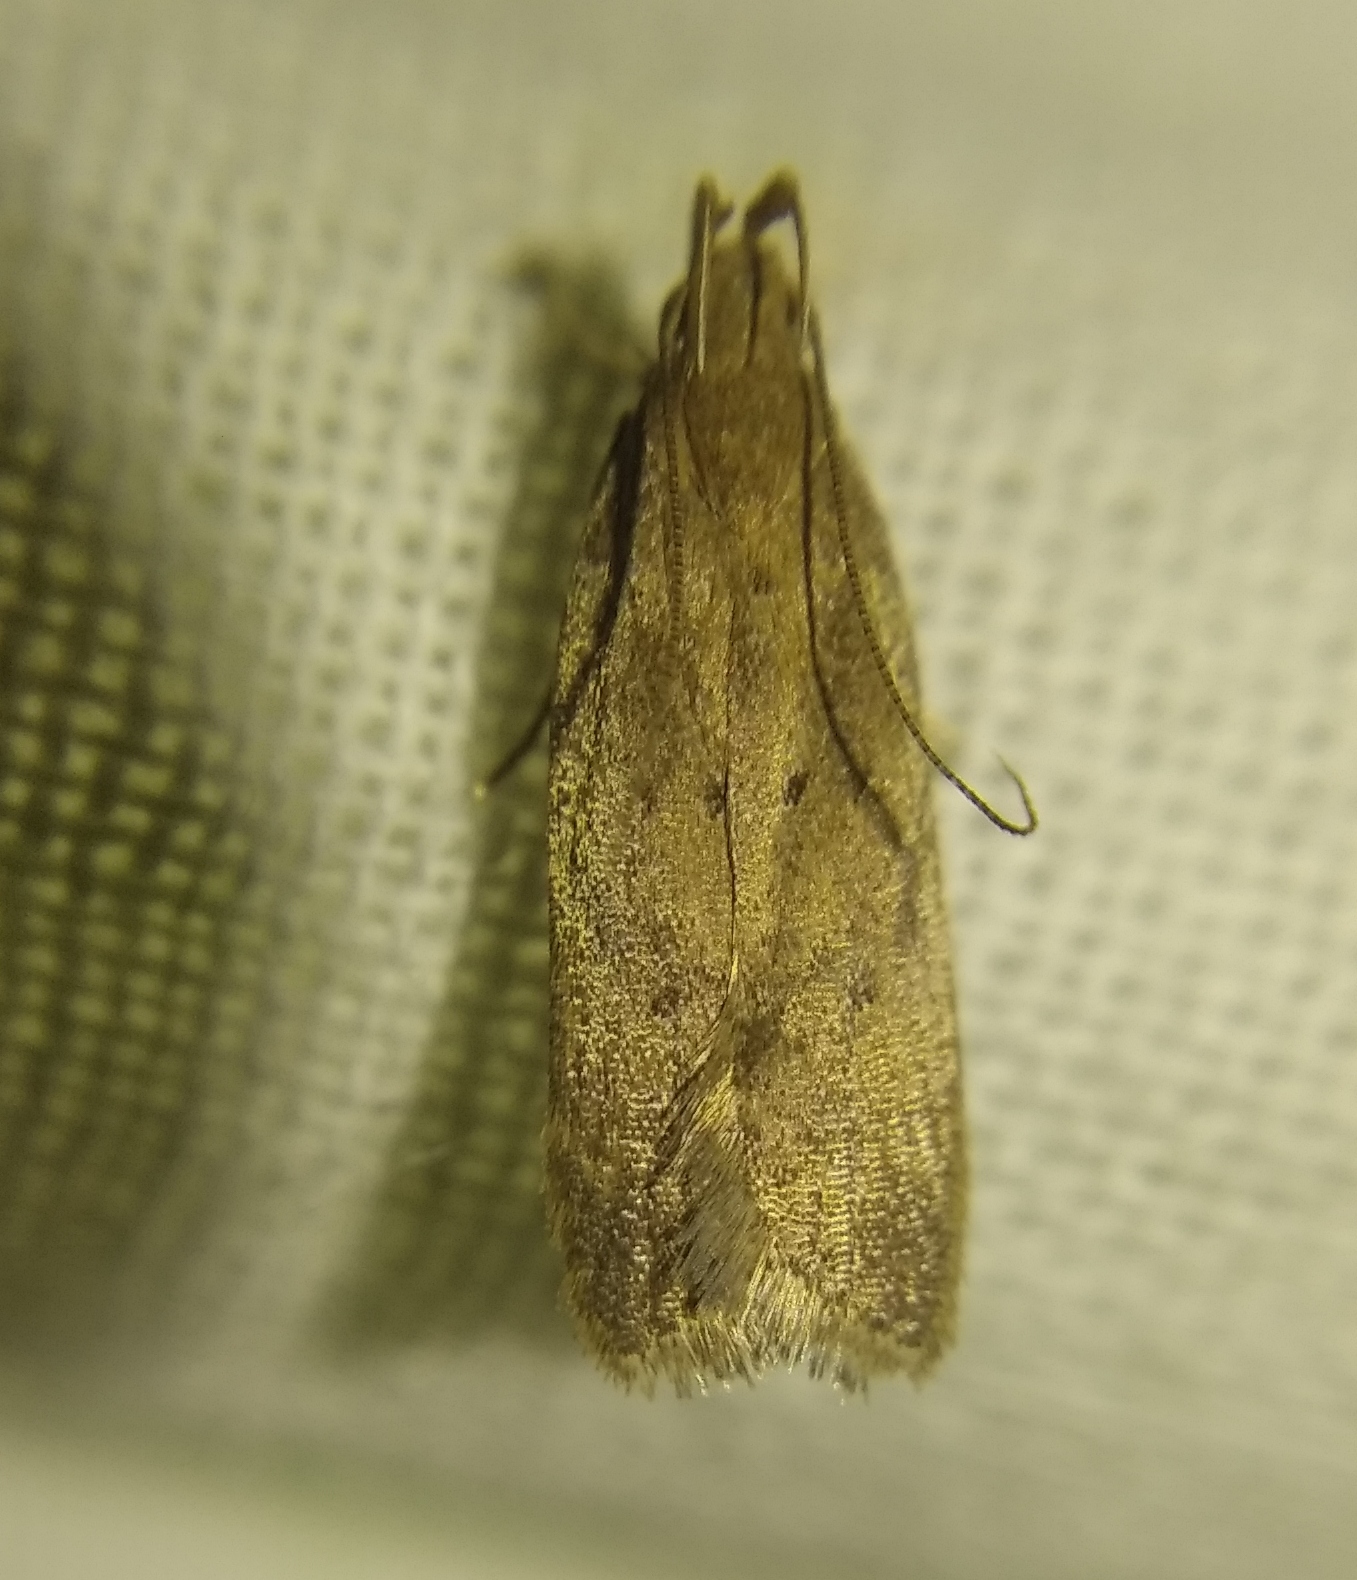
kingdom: Animalia
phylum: Arthropoda
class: Insecta
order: Lepidoptera
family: Gelechiidae
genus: Helcystogramma
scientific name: Helcystogramma lutatella
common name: Clay crest
